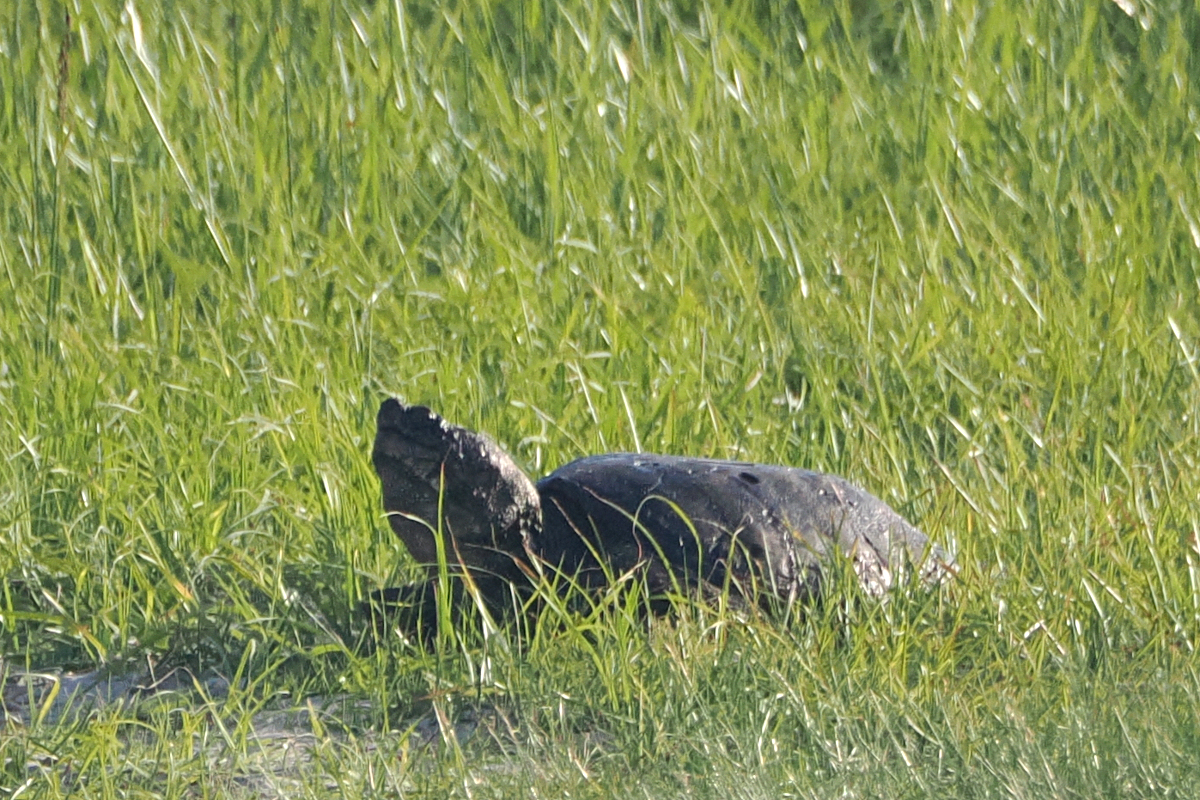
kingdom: Animalia
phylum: Chordata
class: Testudines
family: Chelydridae
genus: Chelydra
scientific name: Chelydra serpentina
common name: Common snapping turtle
